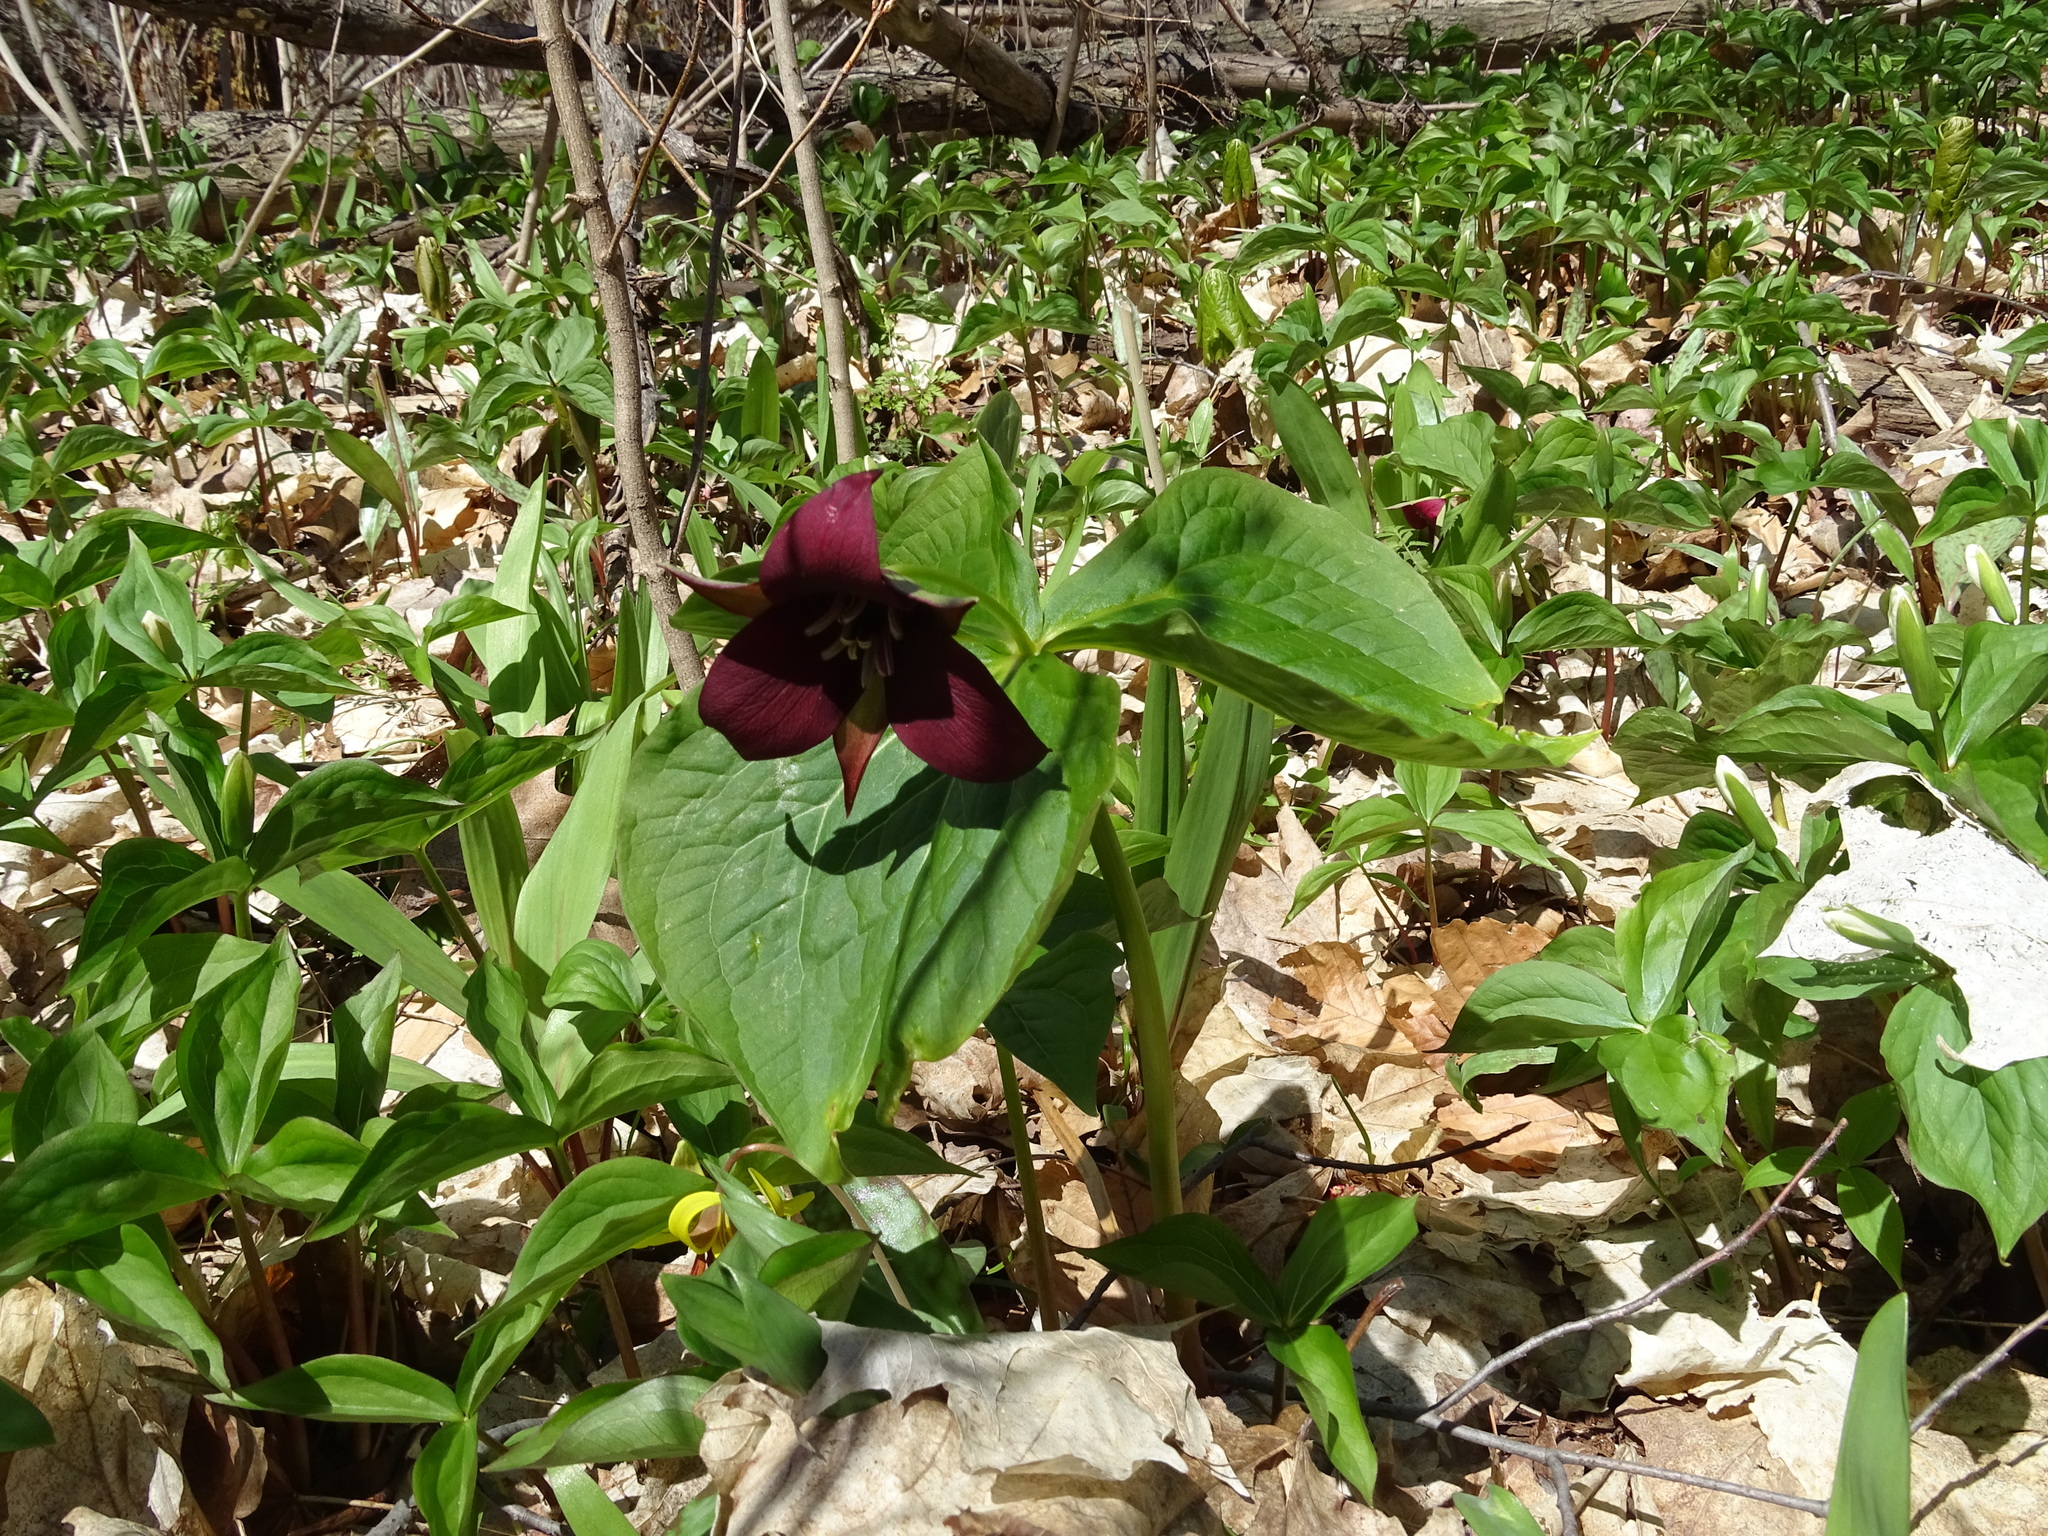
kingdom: Plantae
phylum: Tracheophyta
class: Liliopsida
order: Liliales
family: Melanthiaceae
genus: Trillium
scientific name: Trillium erectum
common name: Purple trillium
